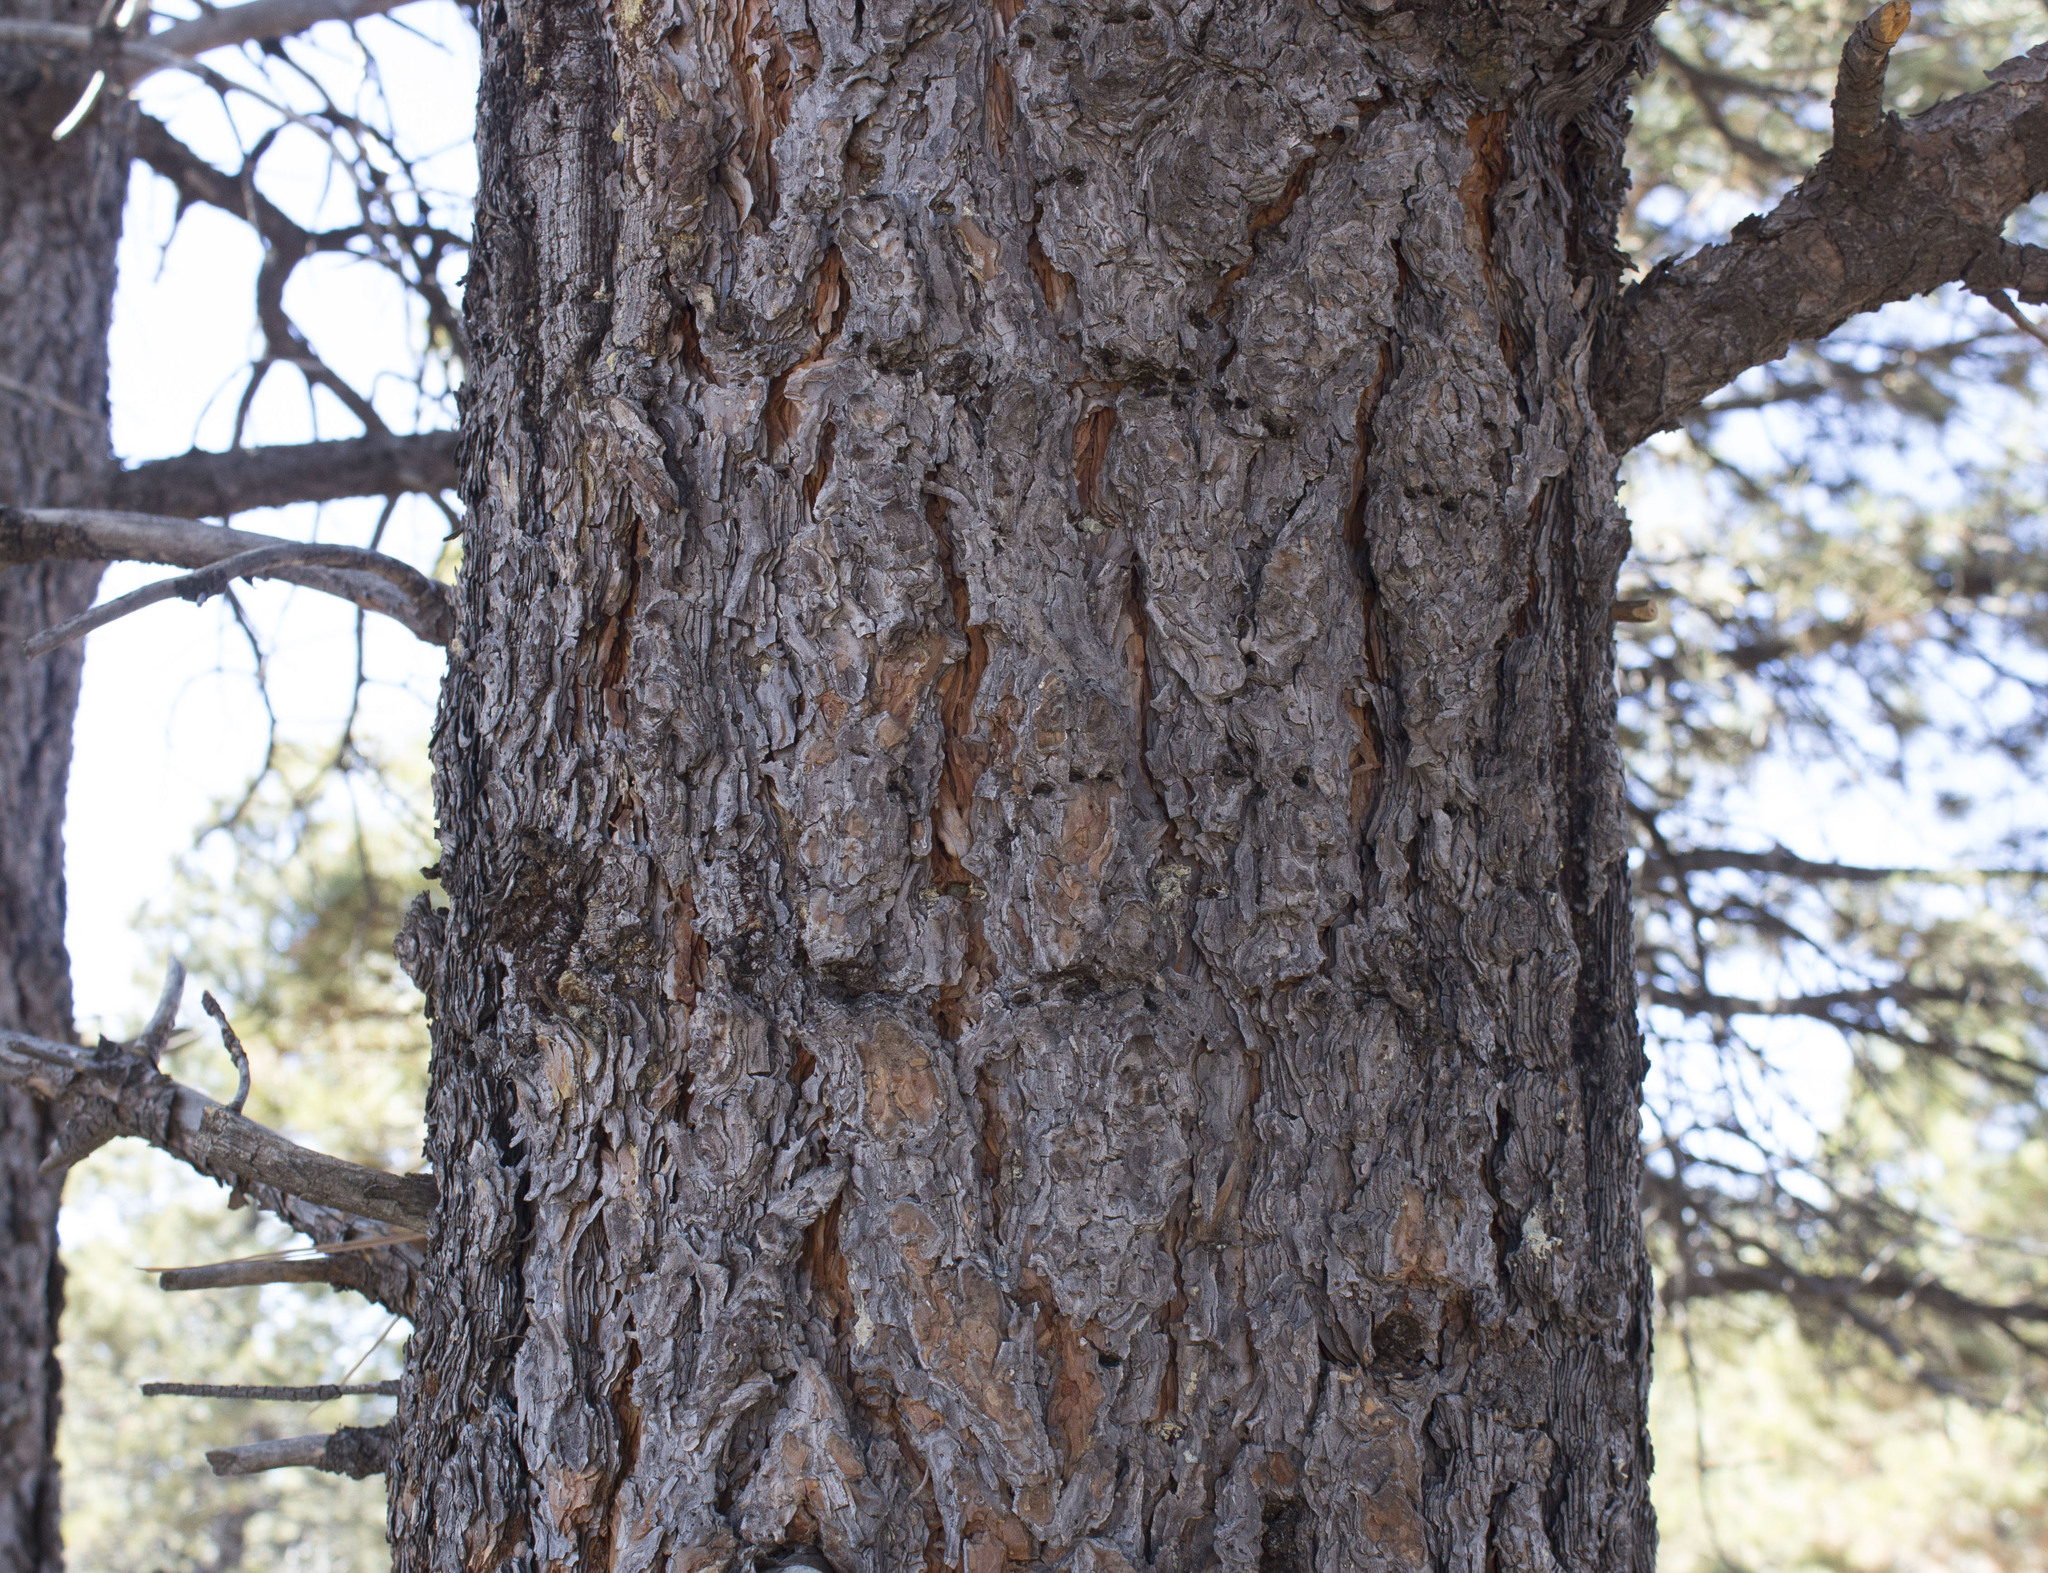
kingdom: Plantae
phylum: Tracheophyta
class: Pinopsida
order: Pinales
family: Pinaceae
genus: Pinus
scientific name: Pinus ponderosa
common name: Western yellow-pine
